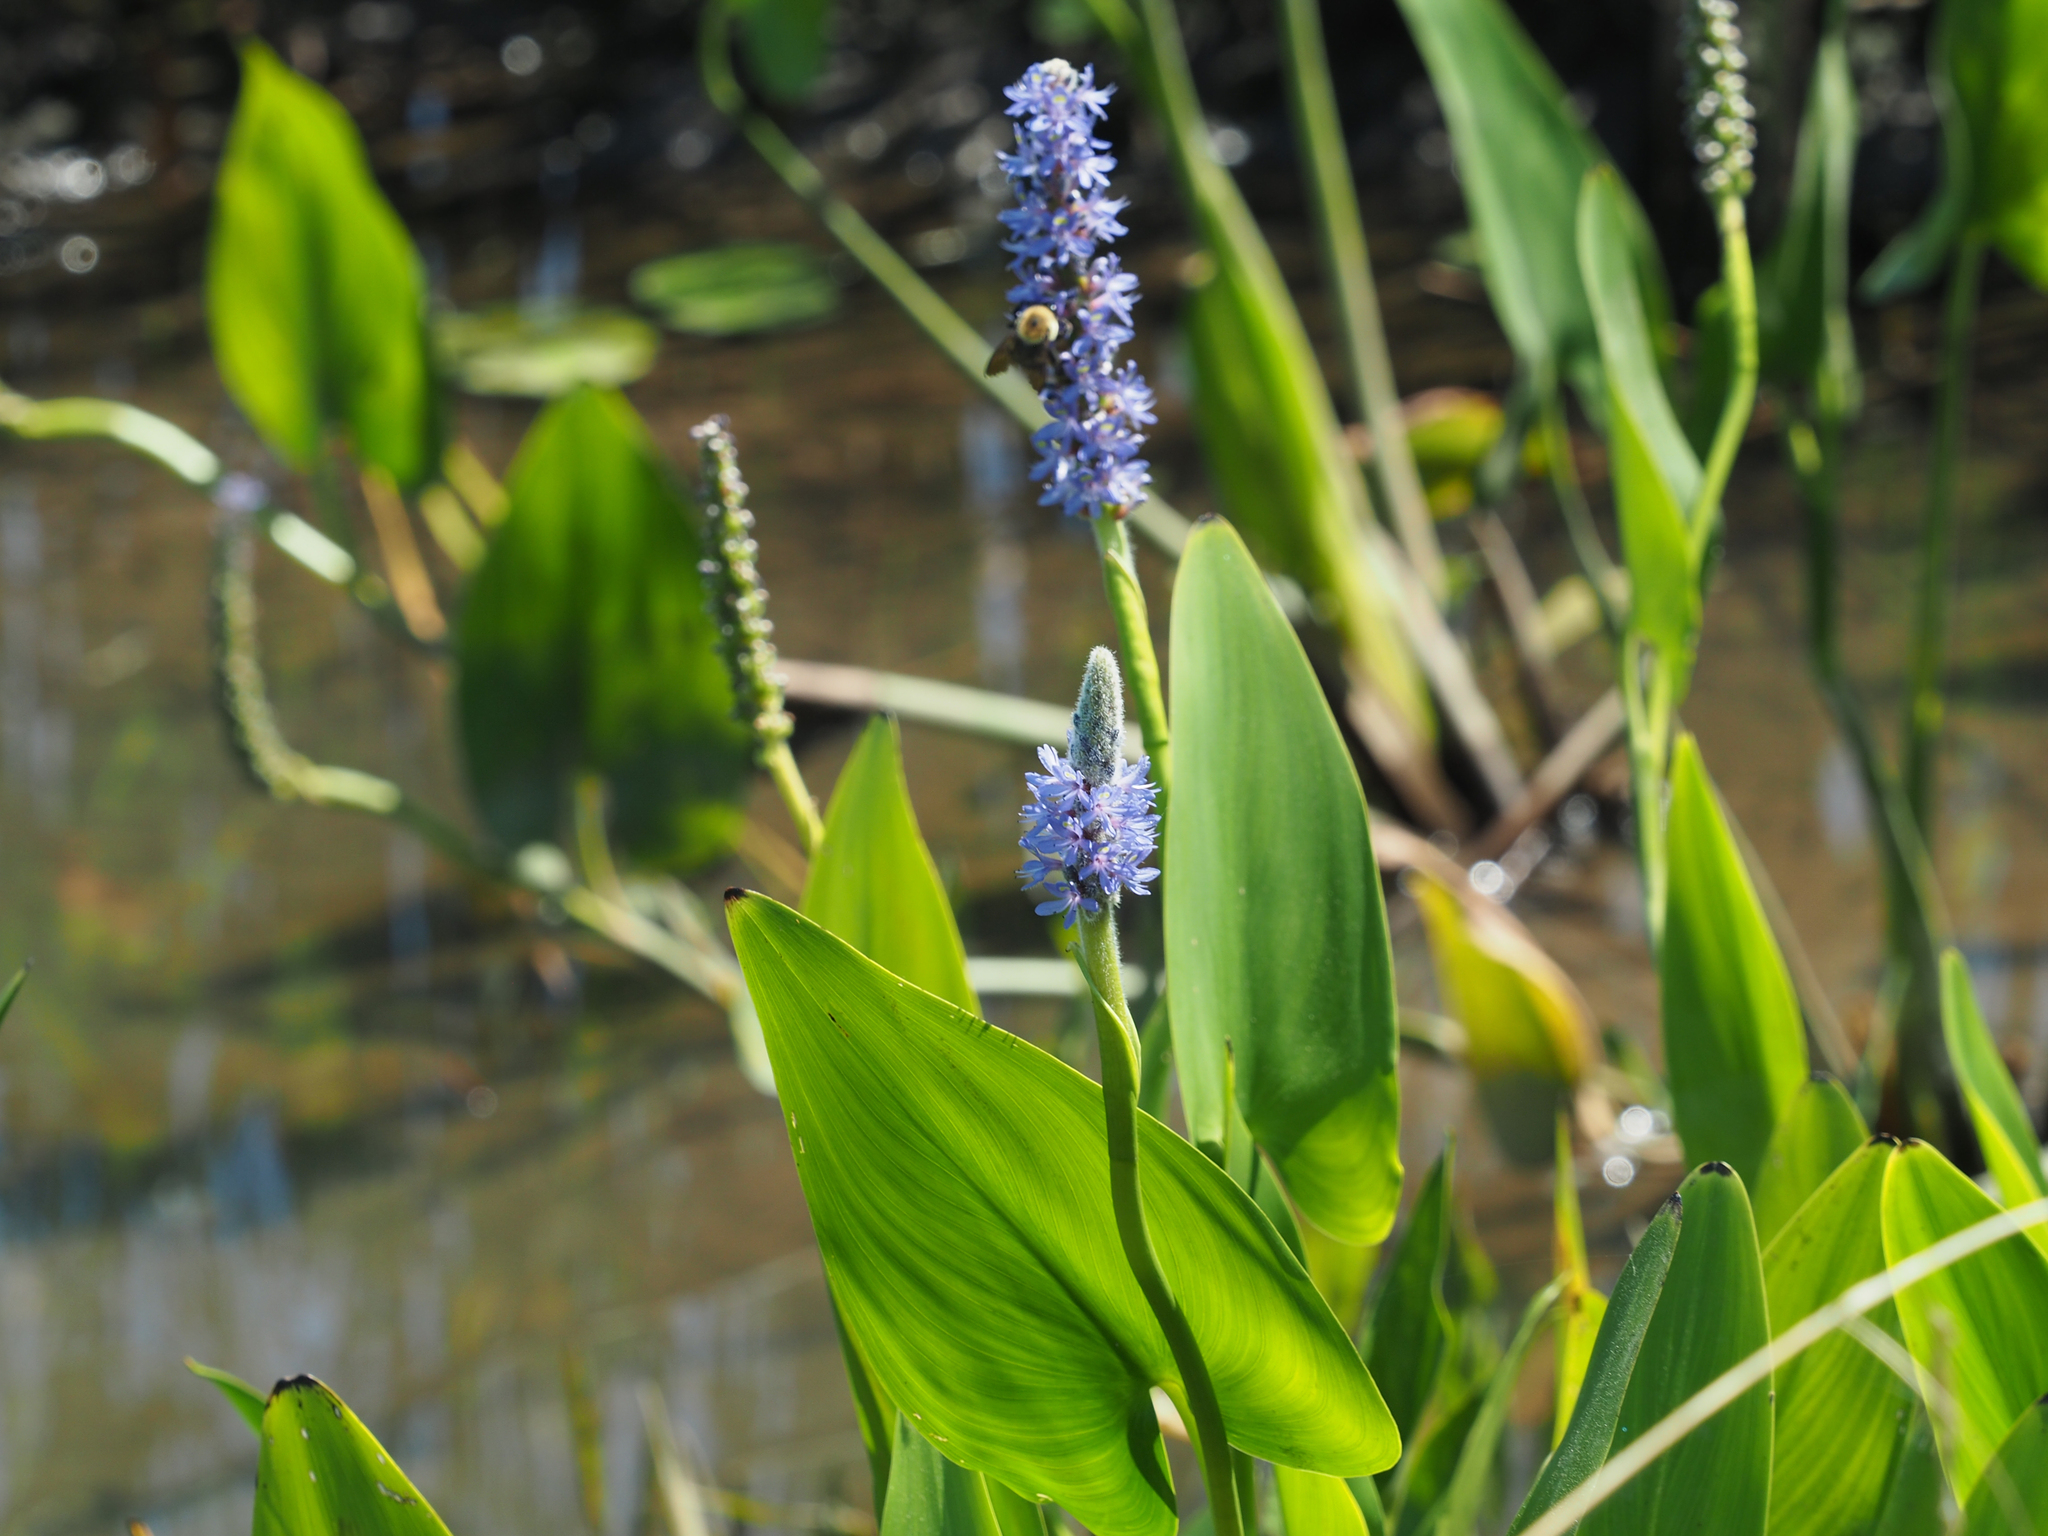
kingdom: Plantae
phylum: Tracheophyta
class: Liliopsida
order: Commelinales
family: Pontederiaceae
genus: Pontederia
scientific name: Pontederia cordata
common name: Pickerelweed
